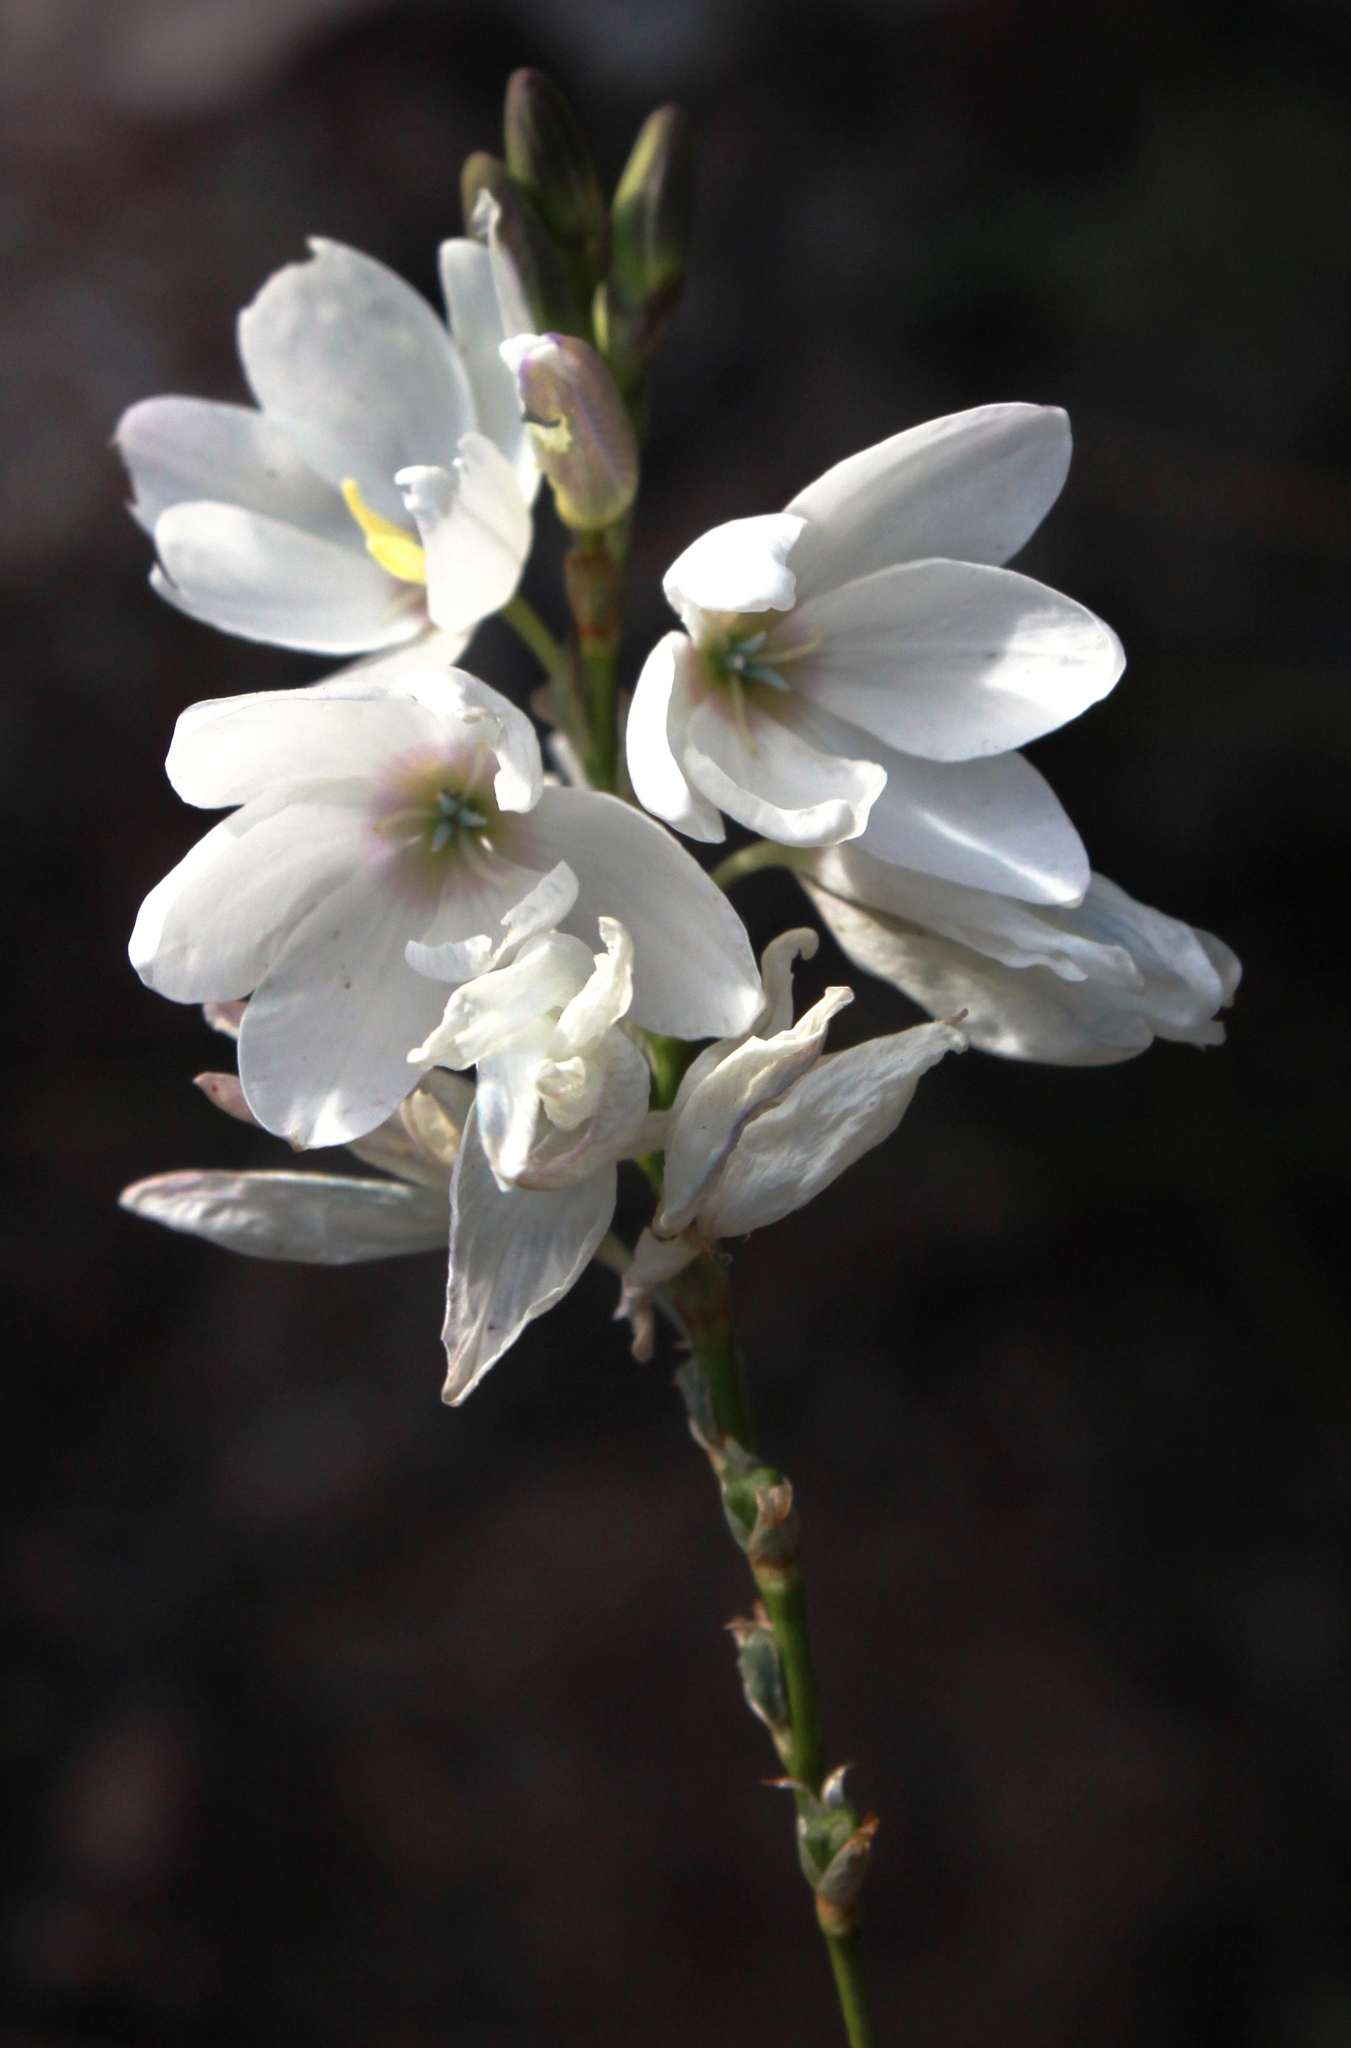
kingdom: Plantae
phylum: Tracheophyta
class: Liliopsida
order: Asparagales
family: Iridaceae
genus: Ixia
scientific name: Ixia polystachya
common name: White-and-yellow-flower cornlily
